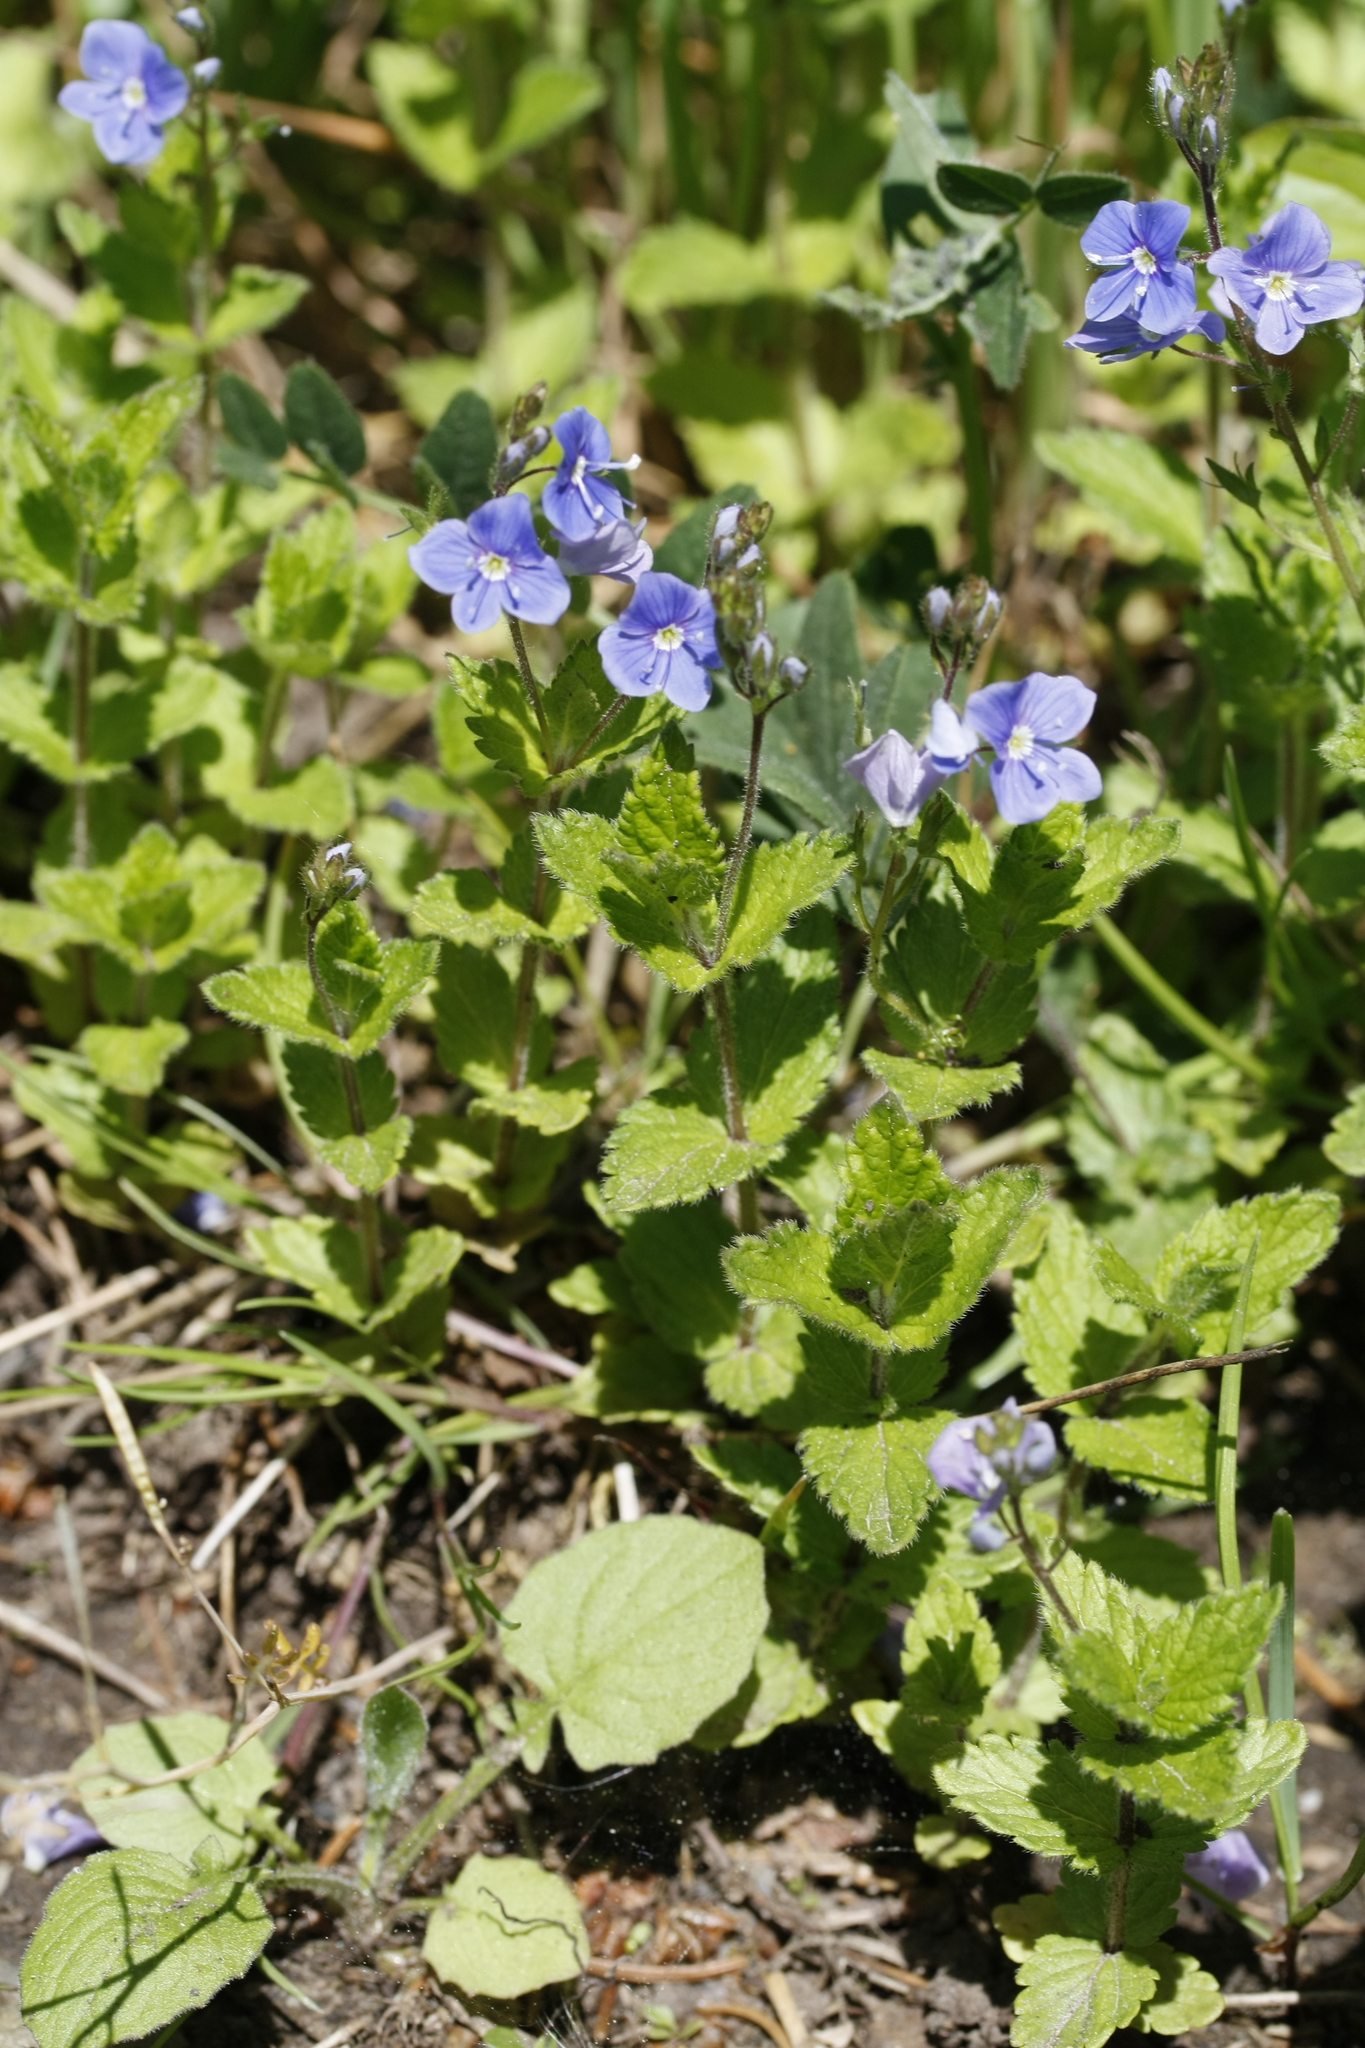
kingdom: Plantae
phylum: Tracheophyta
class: Magnoliopsida
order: Lamiales
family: Plantaginaceae
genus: Veronica
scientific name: Veronica chamaedrys
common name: Germander speedwell
